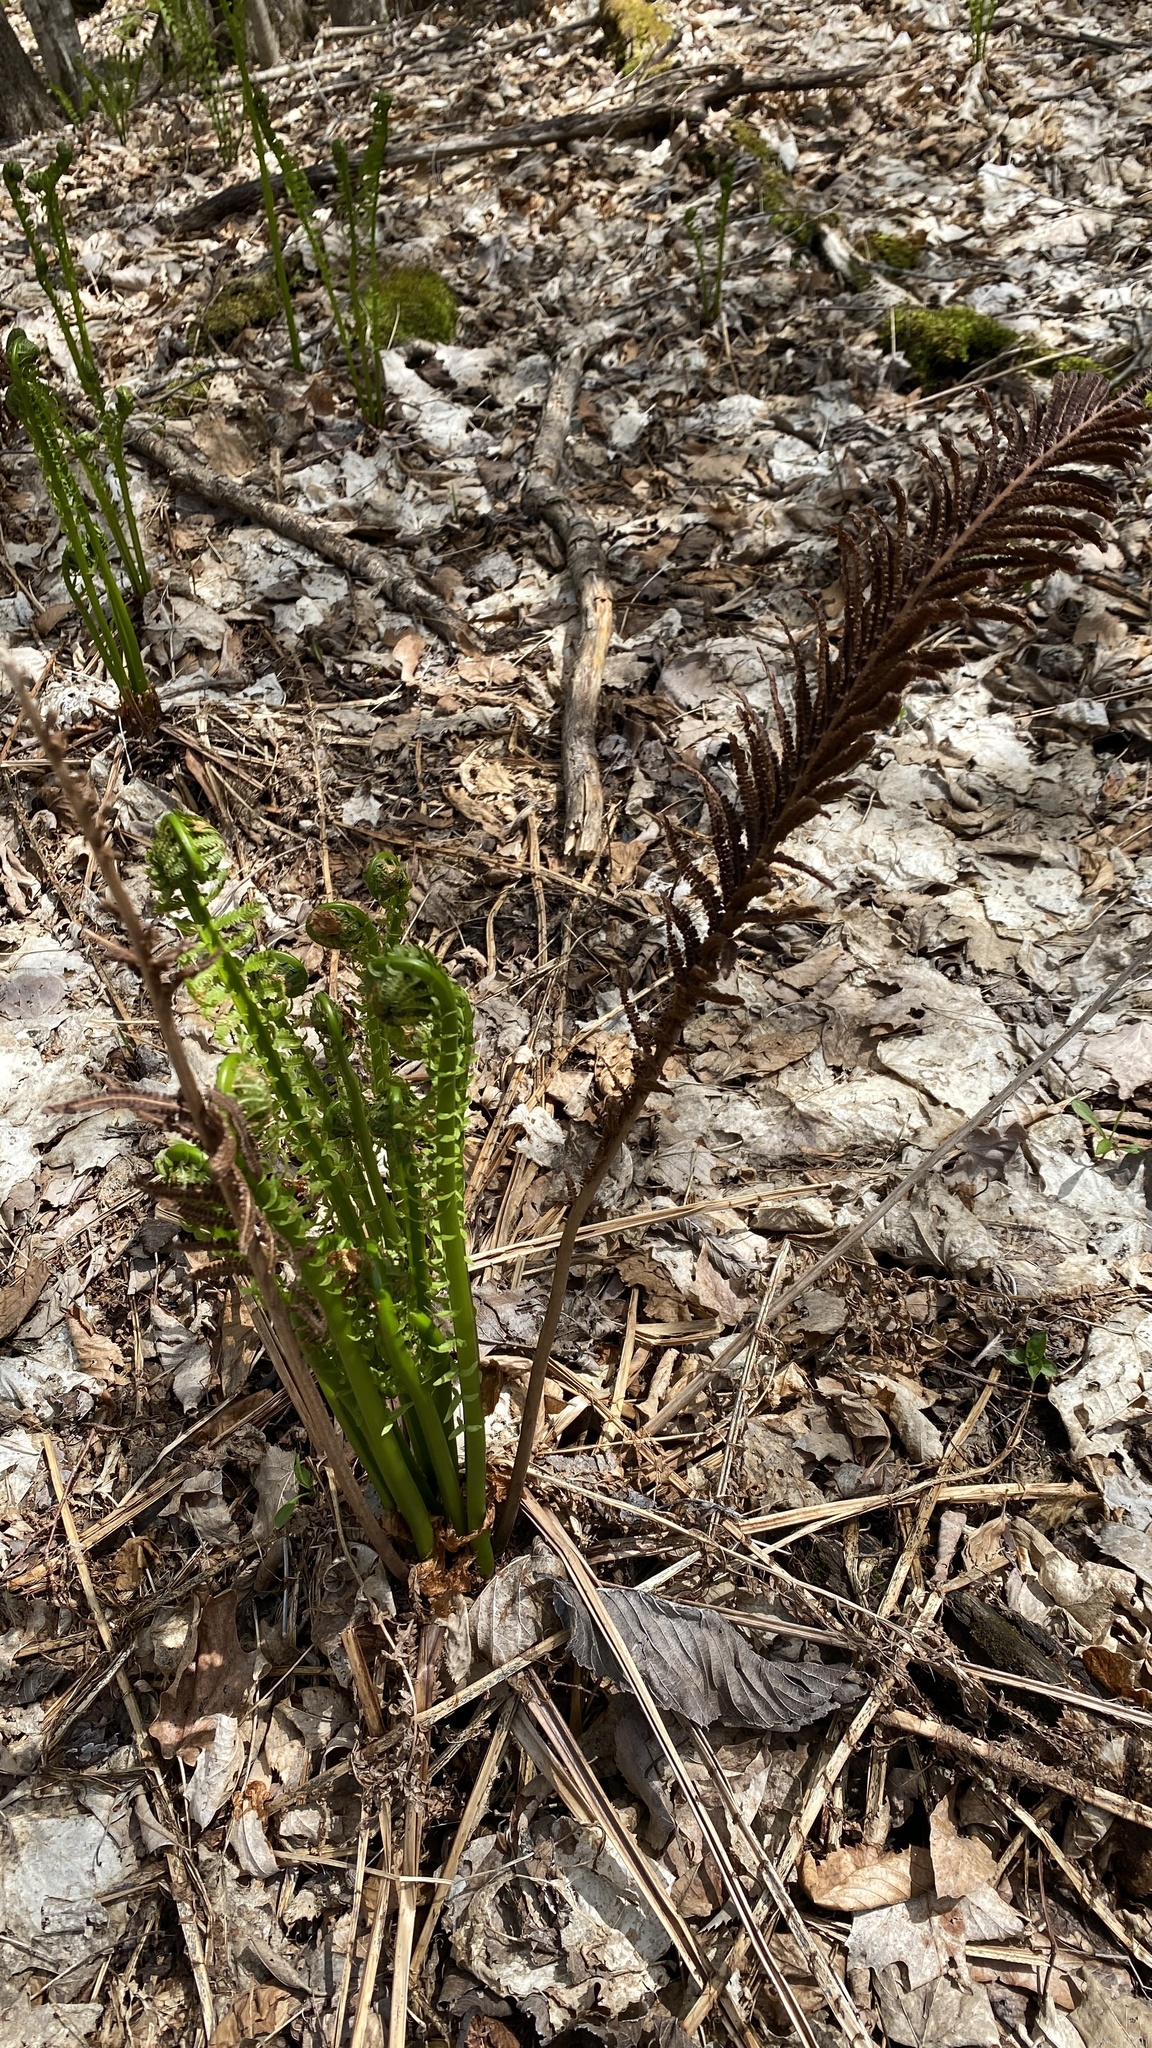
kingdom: Plantae
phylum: Tracheophyta
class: Polypodiopsida
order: Polypodiales
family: Onocleaceae
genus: Matteuccia
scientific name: Matteuccia struthiopteris
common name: Ostrich fern
